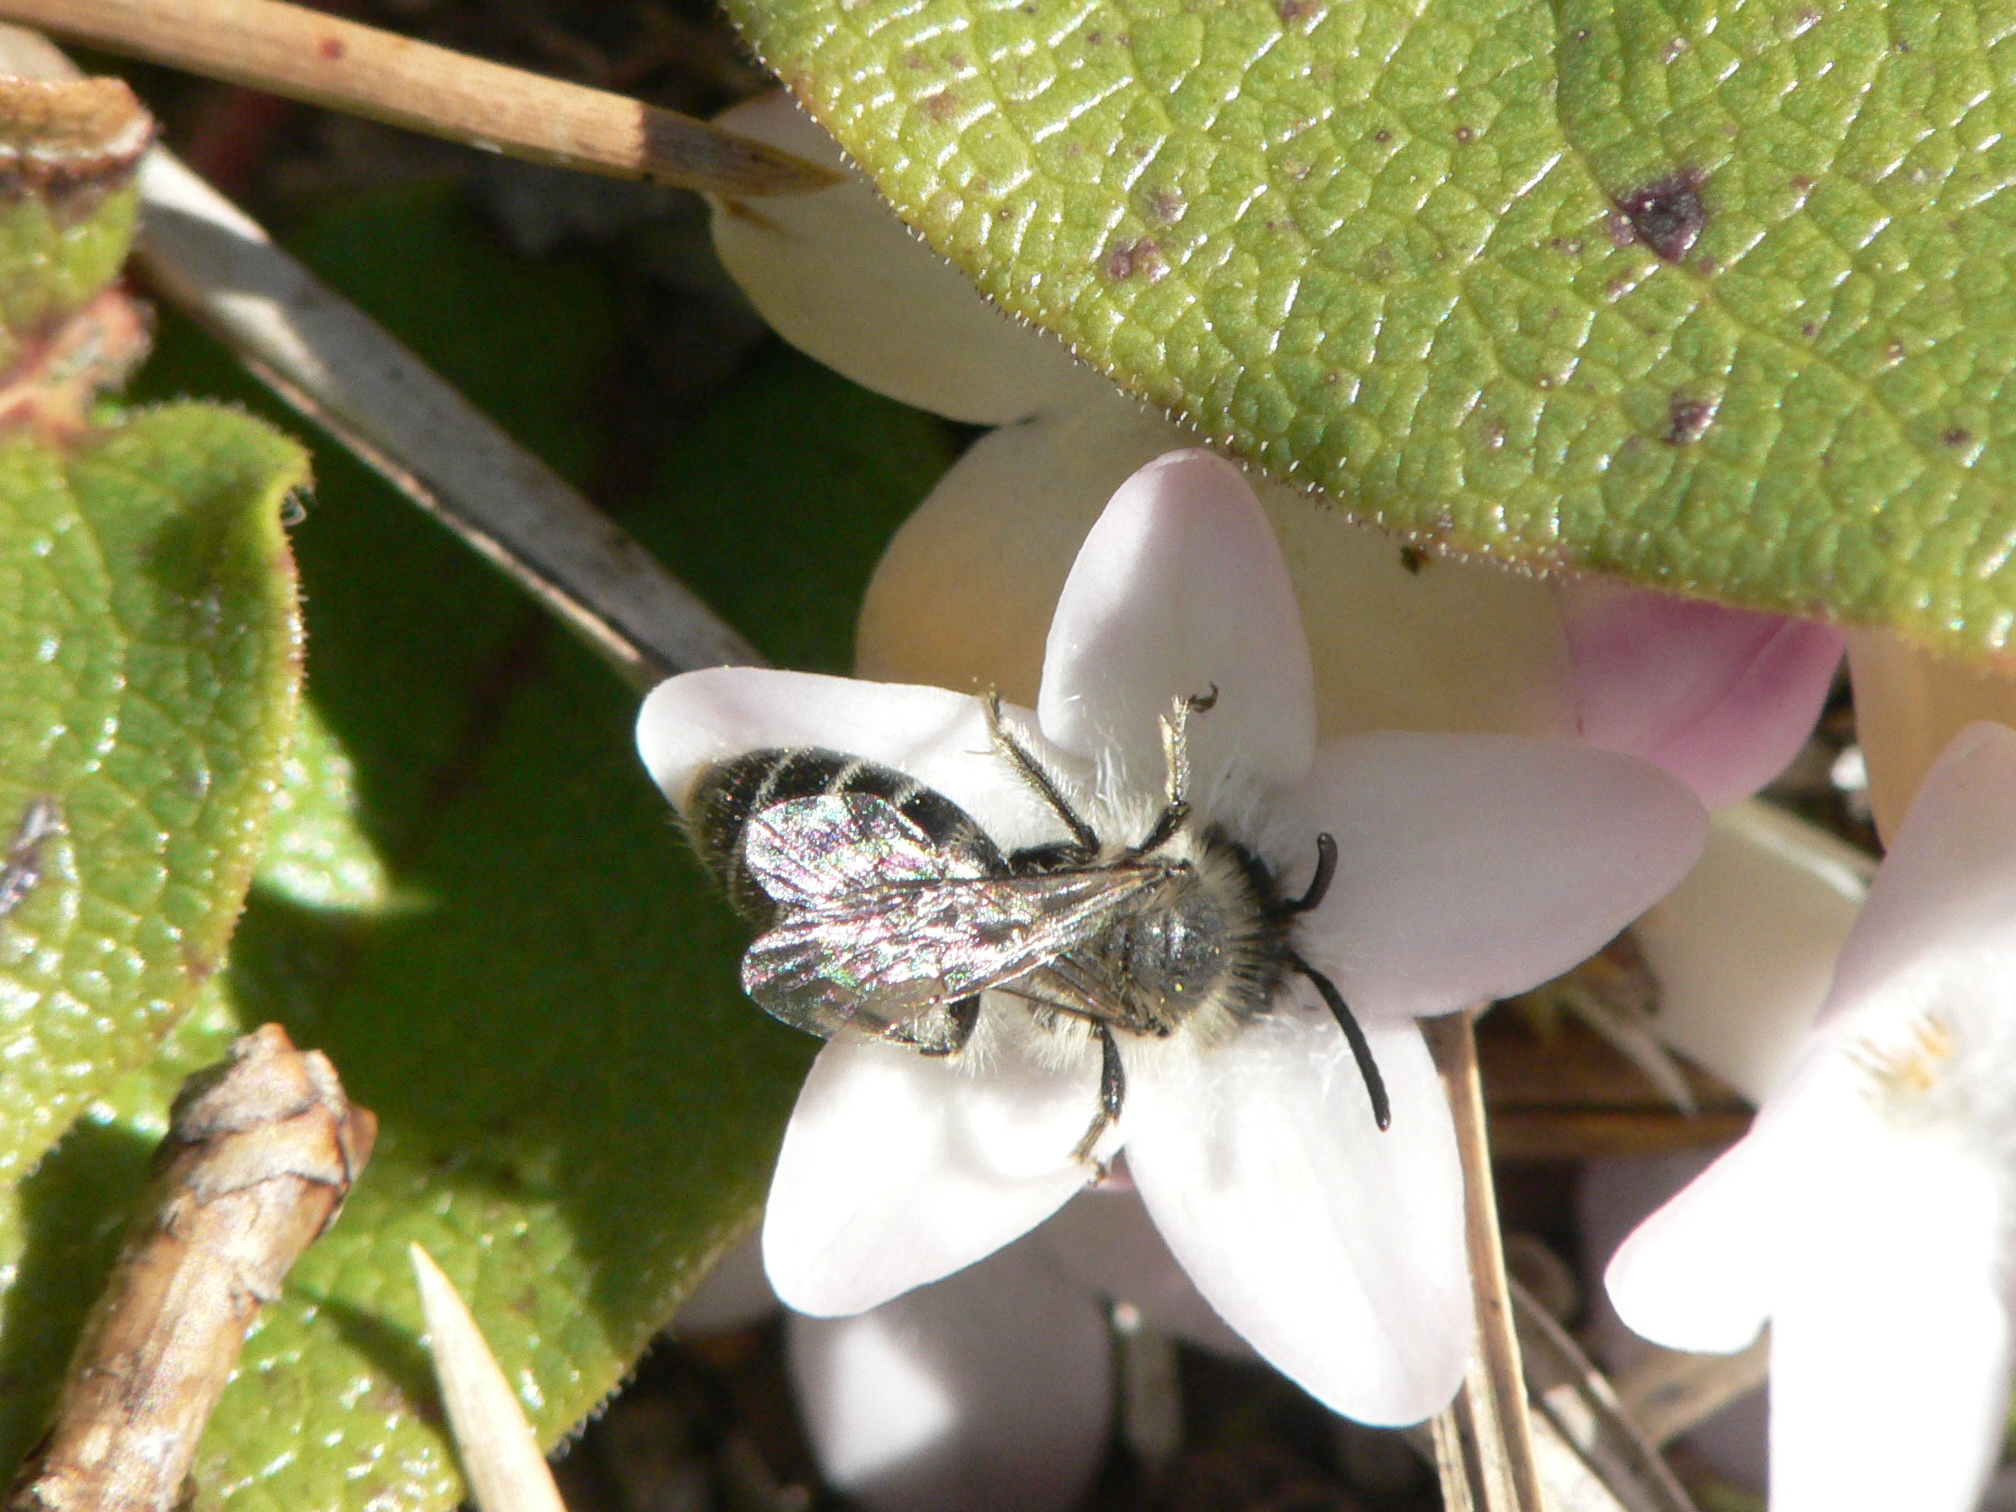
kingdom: Animalia
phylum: Arthropoda
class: Insecta
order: Hymenoptera
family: Andrenidae
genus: Andrena
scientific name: Andrena bradleyi
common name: Bradley's mining bee
